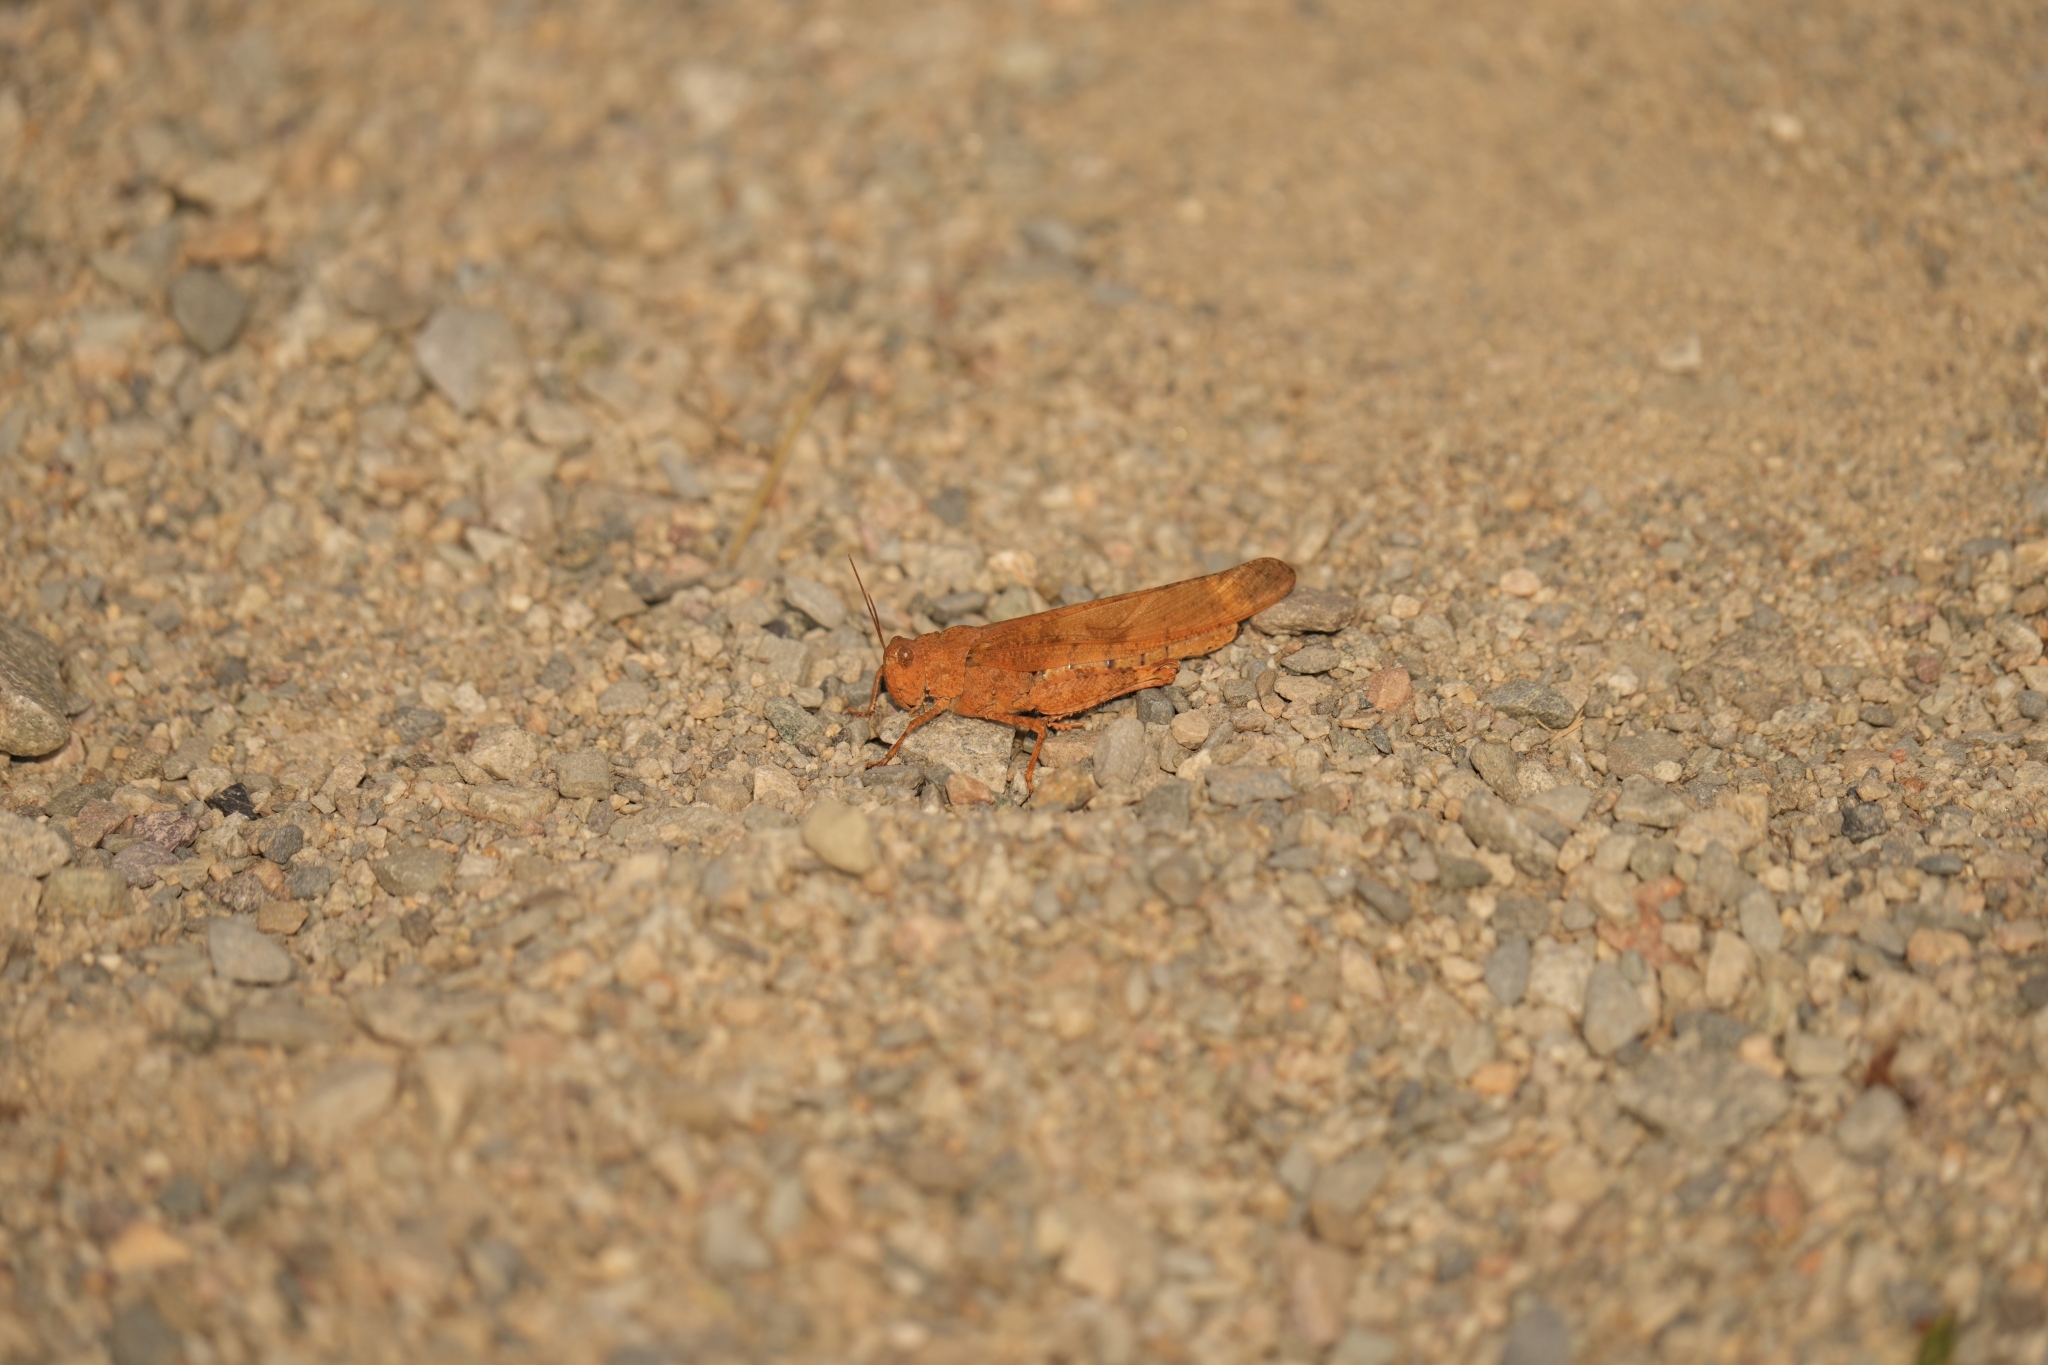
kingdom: Animalia
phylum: Arthropoda
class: Insecta
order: Orthoptera
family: Acrididae
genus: Dissosteira
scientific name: Dissosteira carolina
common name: Carolina grasshopper
